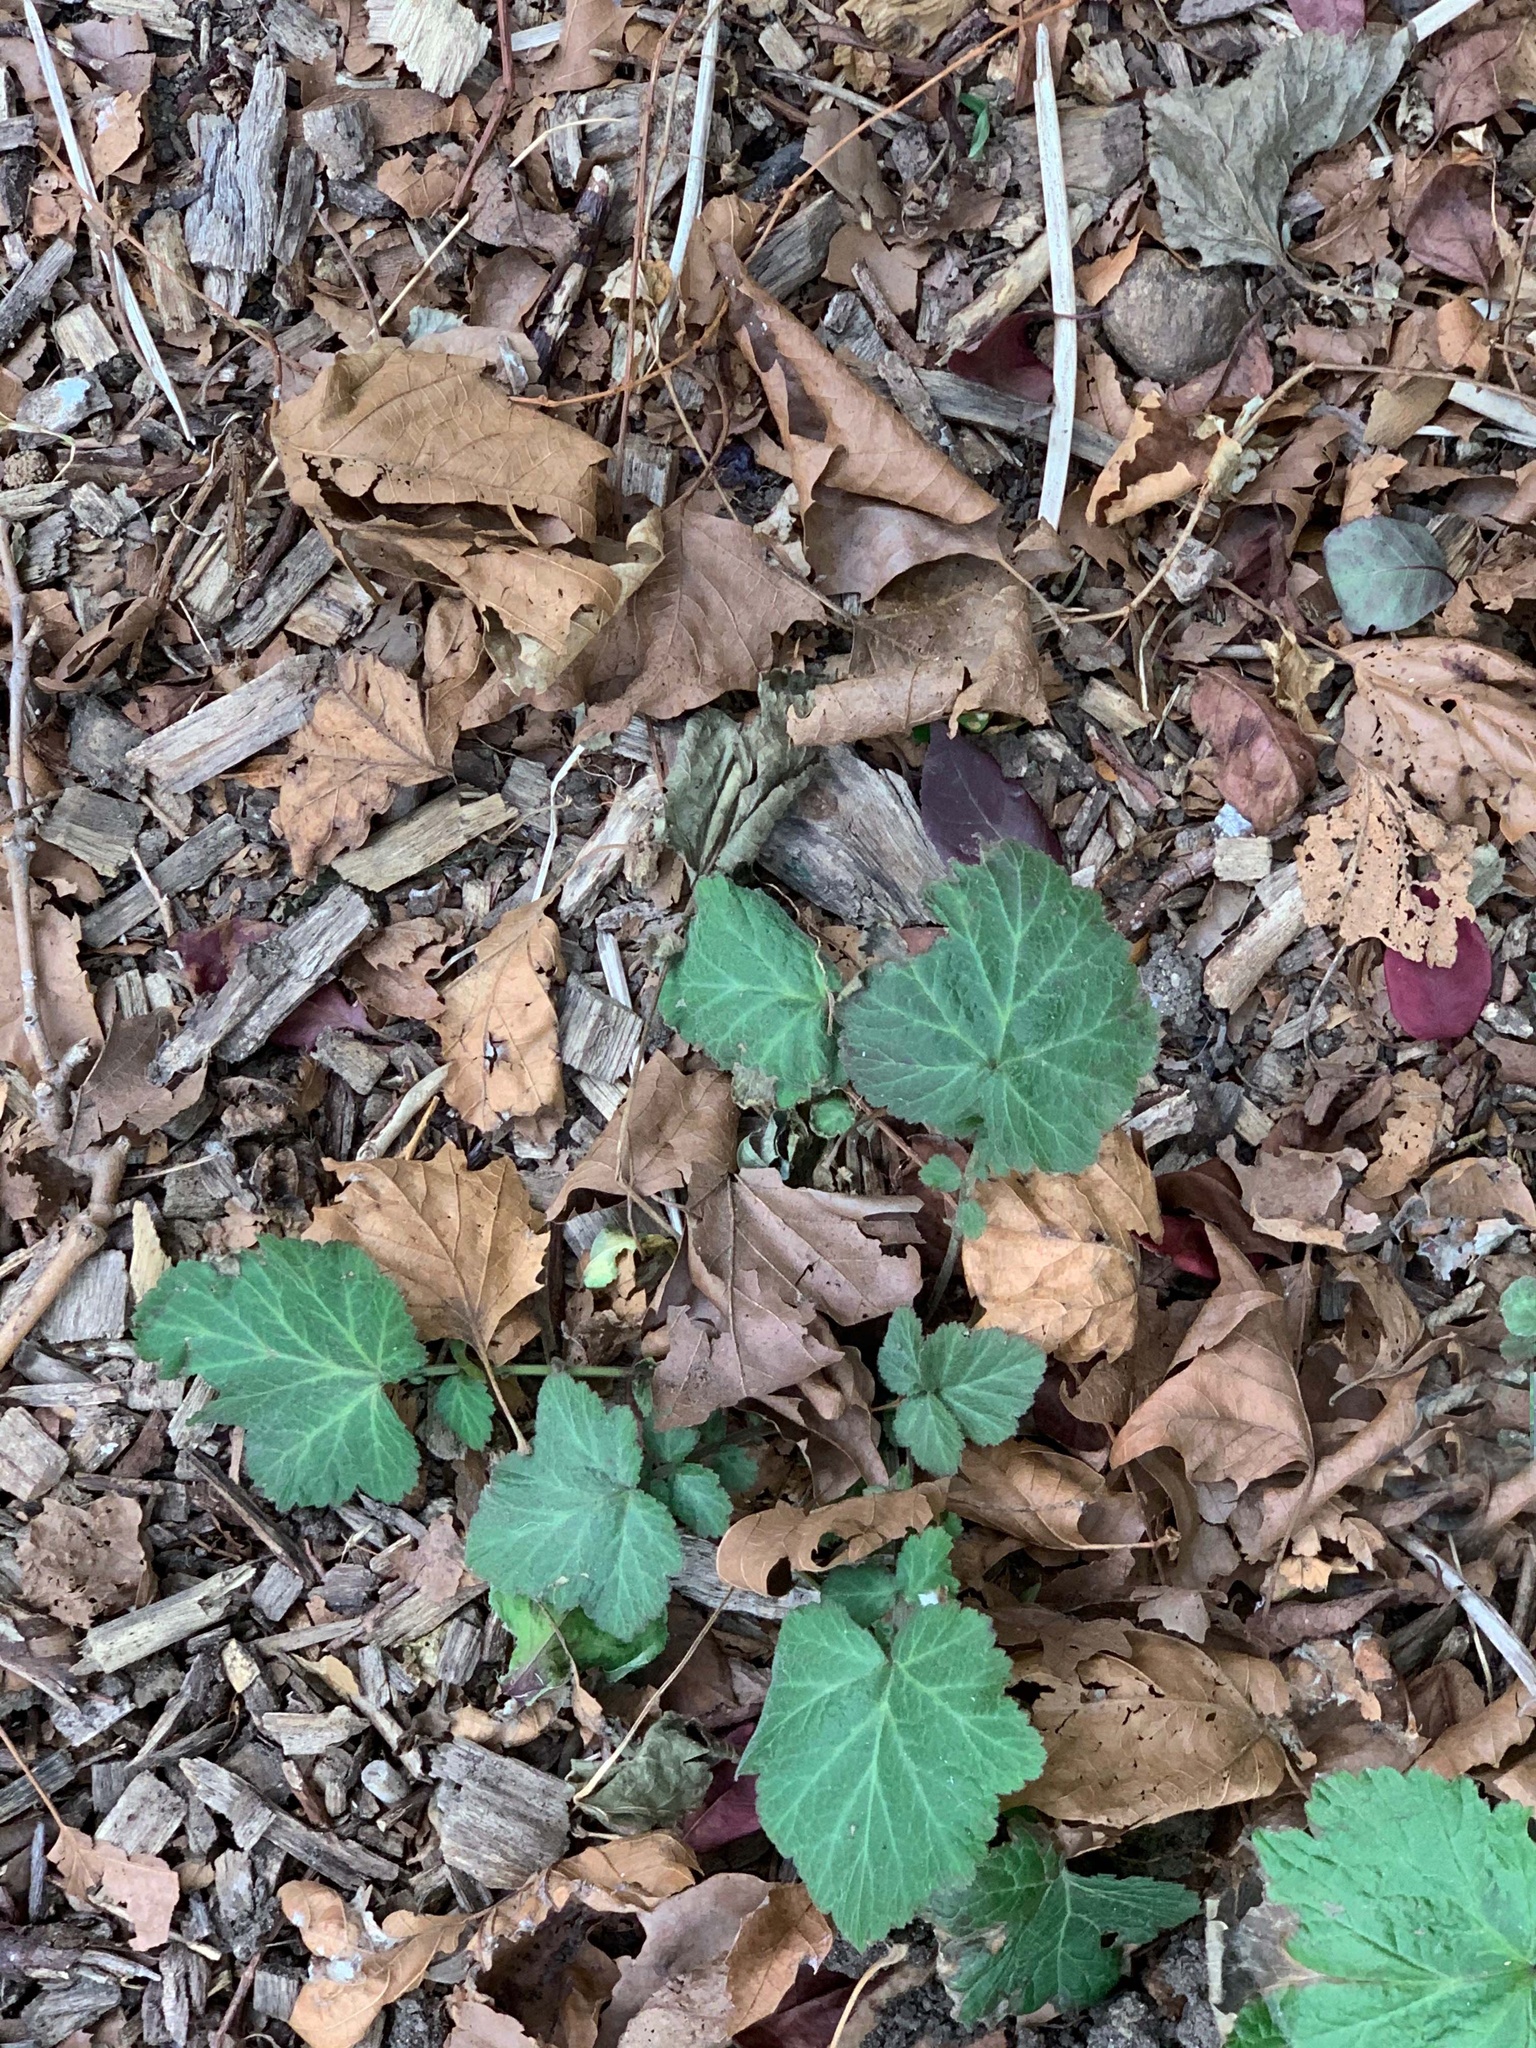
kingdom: Plantae
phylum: Tracheophyta
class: Magnoliopsida
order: Rosales
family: Rosaceae
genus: Geum
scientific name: Geum canadense
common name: White avens
